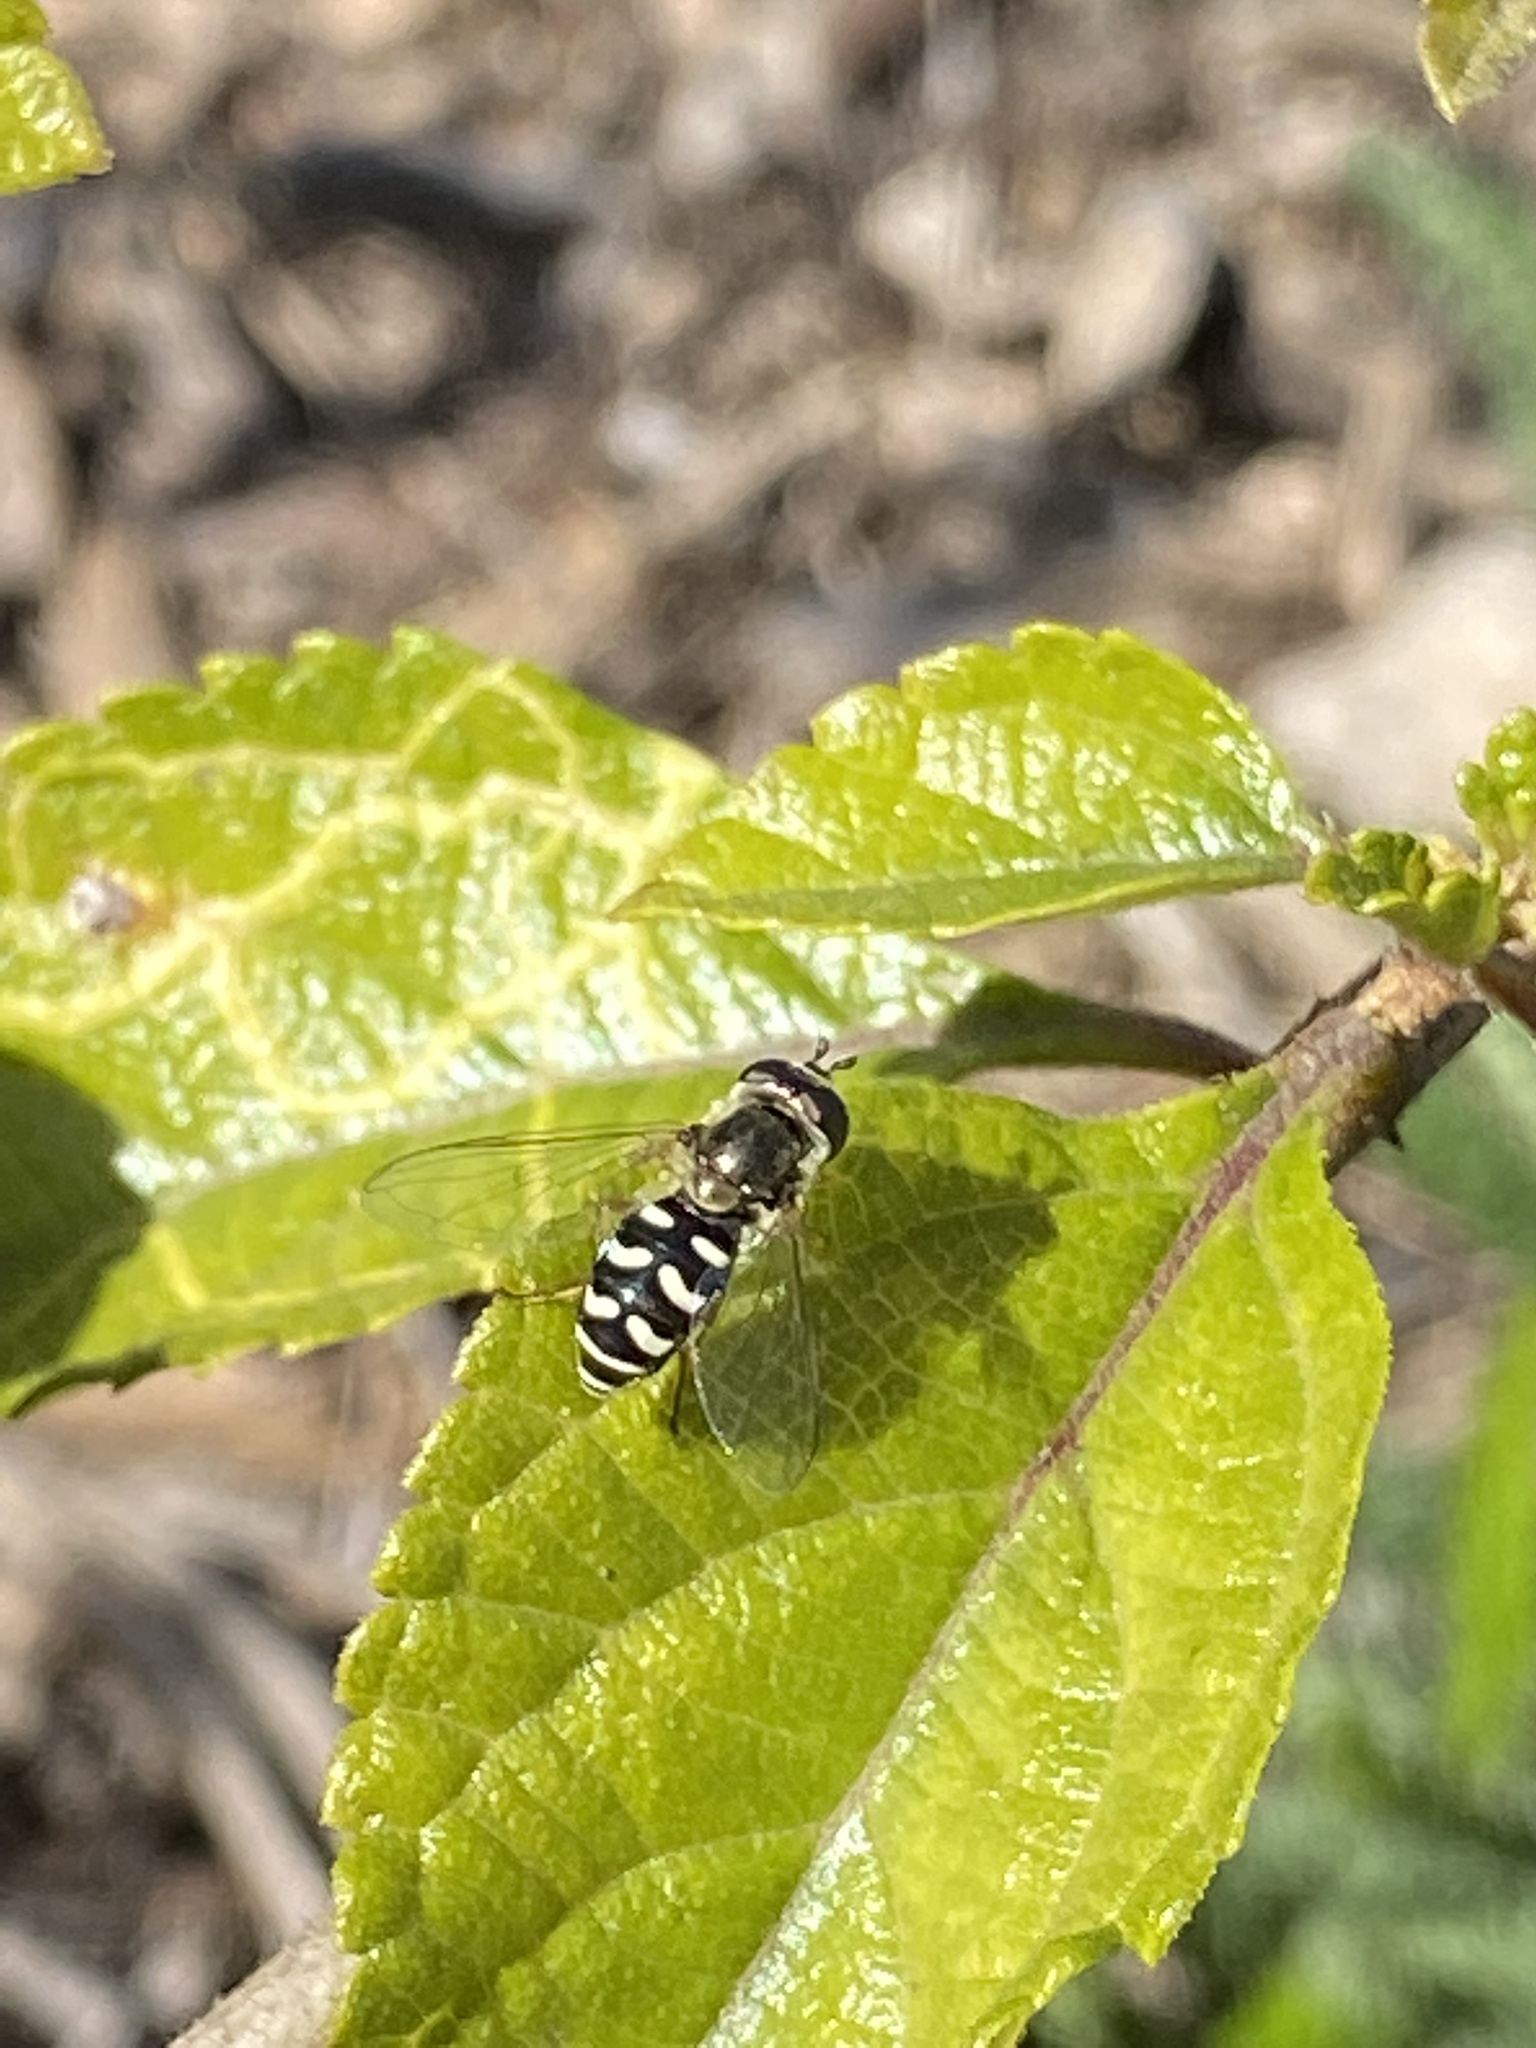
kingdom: Animalia
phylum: Arthropoda
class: Insecta
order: Diptera
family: Syrphidae
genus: Eupeodes
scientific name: Eupeodes volucris
